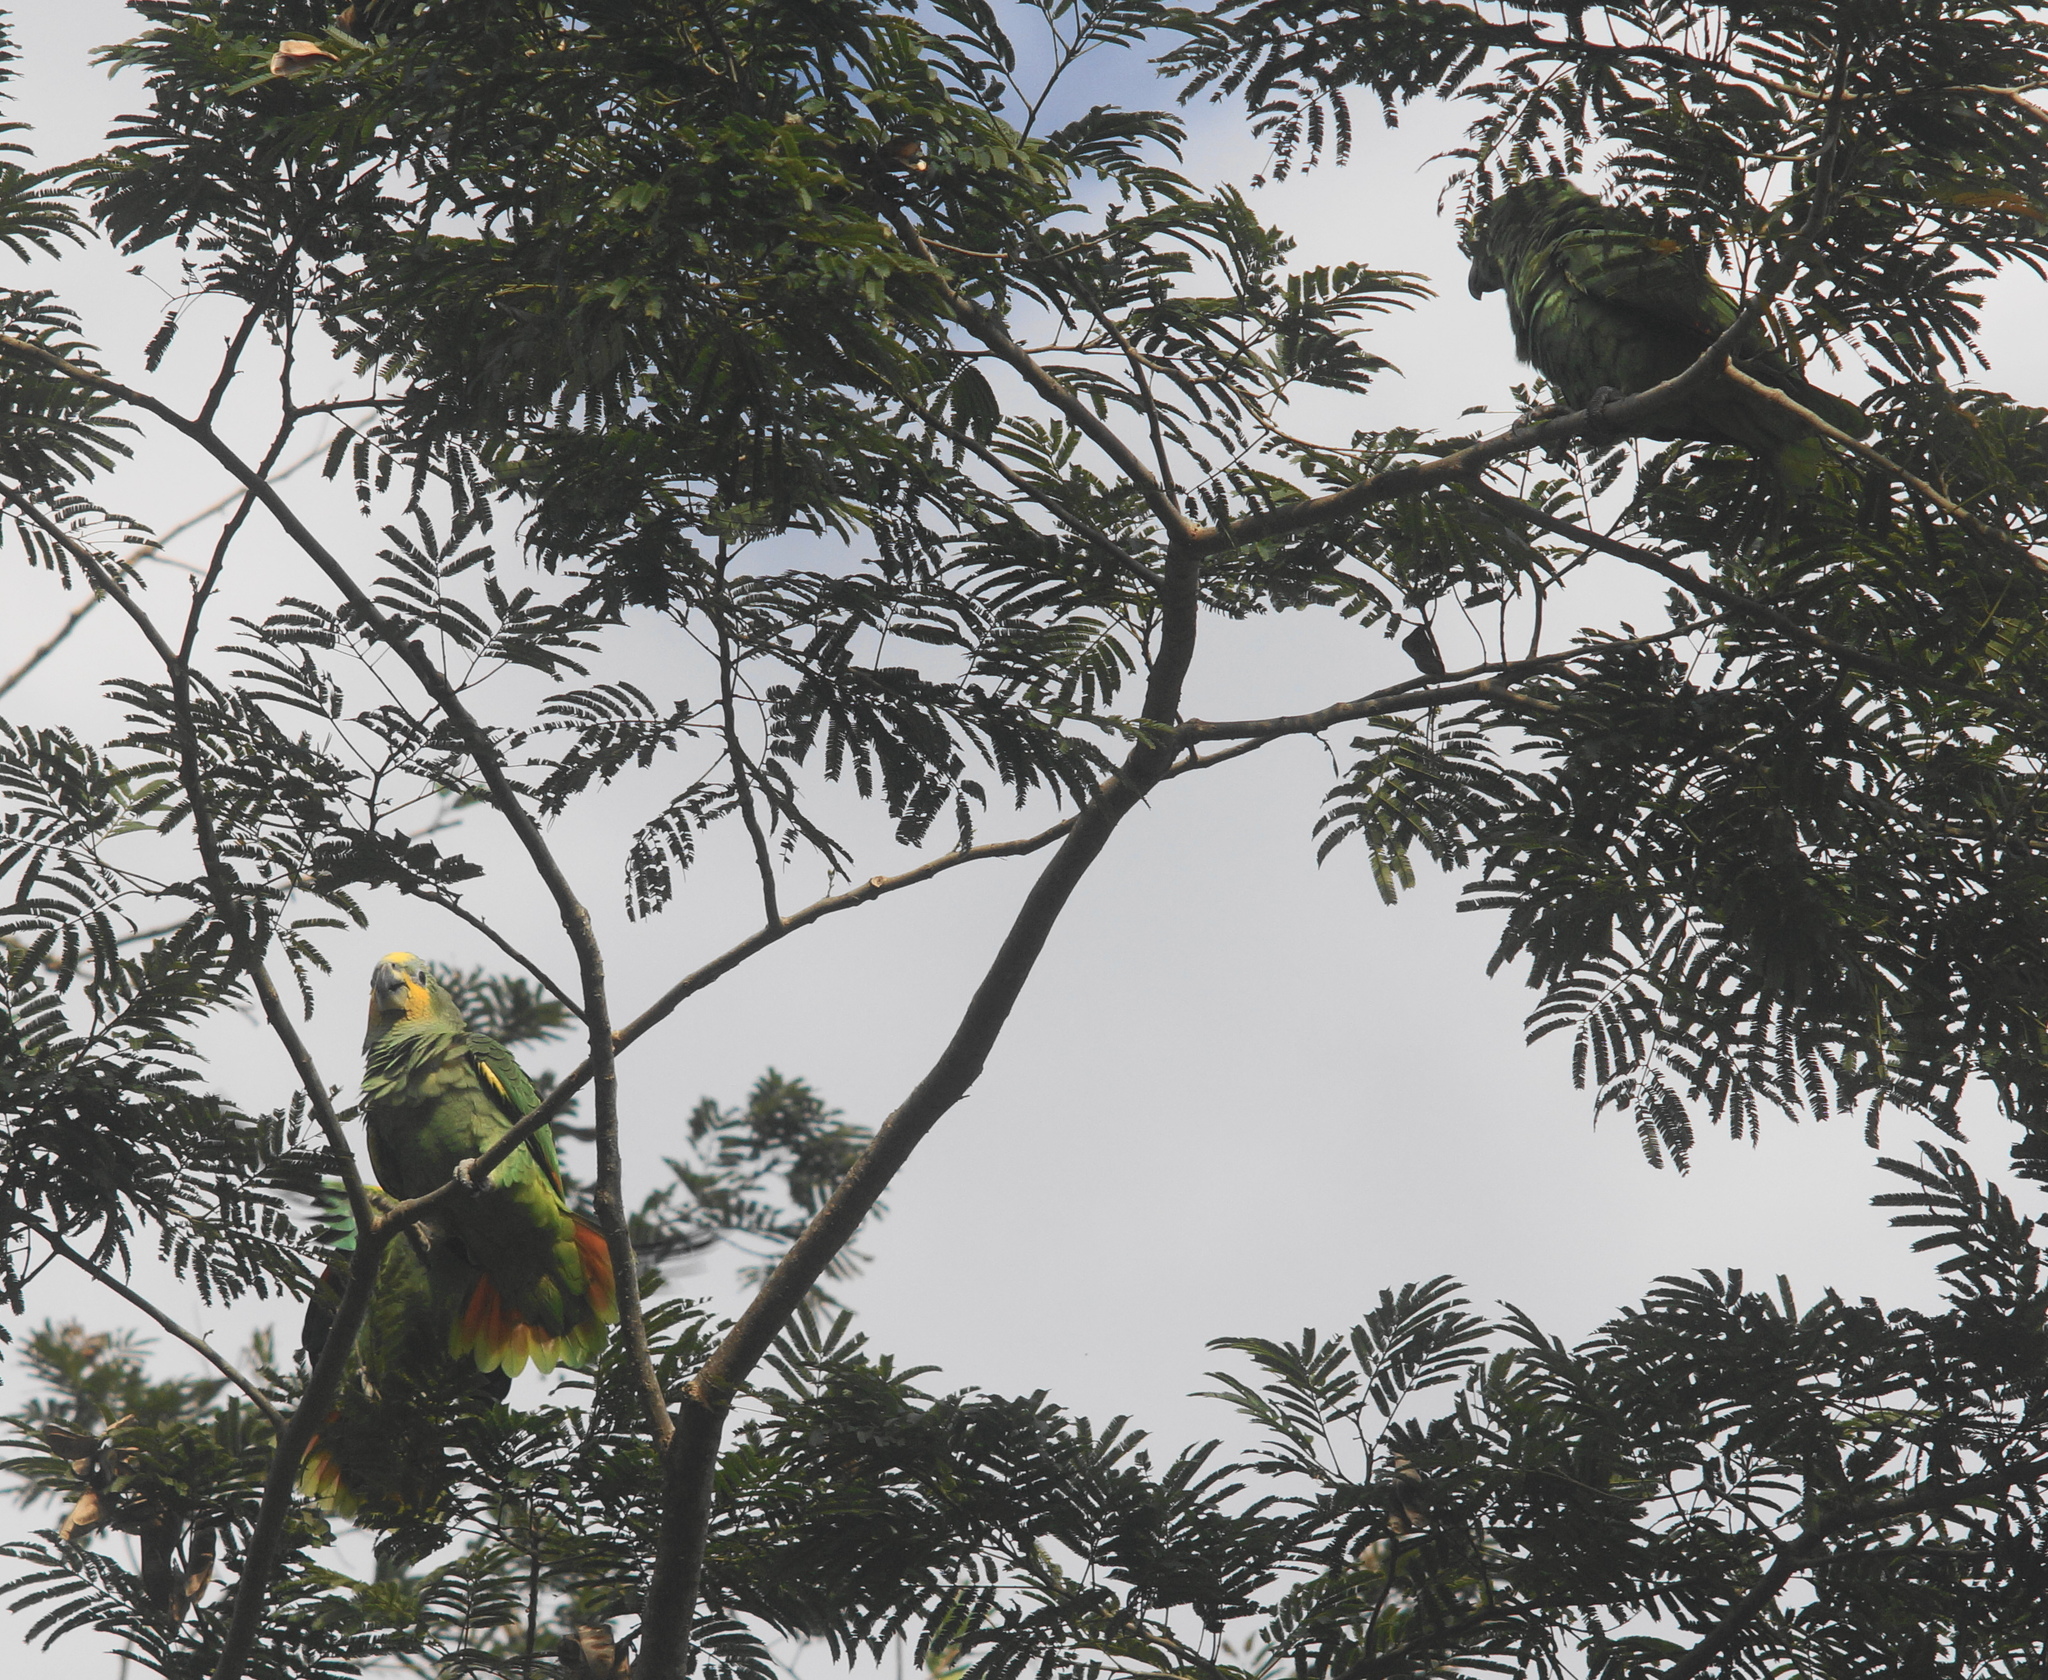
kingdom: Animalia
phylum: Chordata
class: Aves
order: Psittaciformes
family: Psittacidae
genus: Amazona
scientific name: Amazona amazonica
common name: Orange-winged amazon
